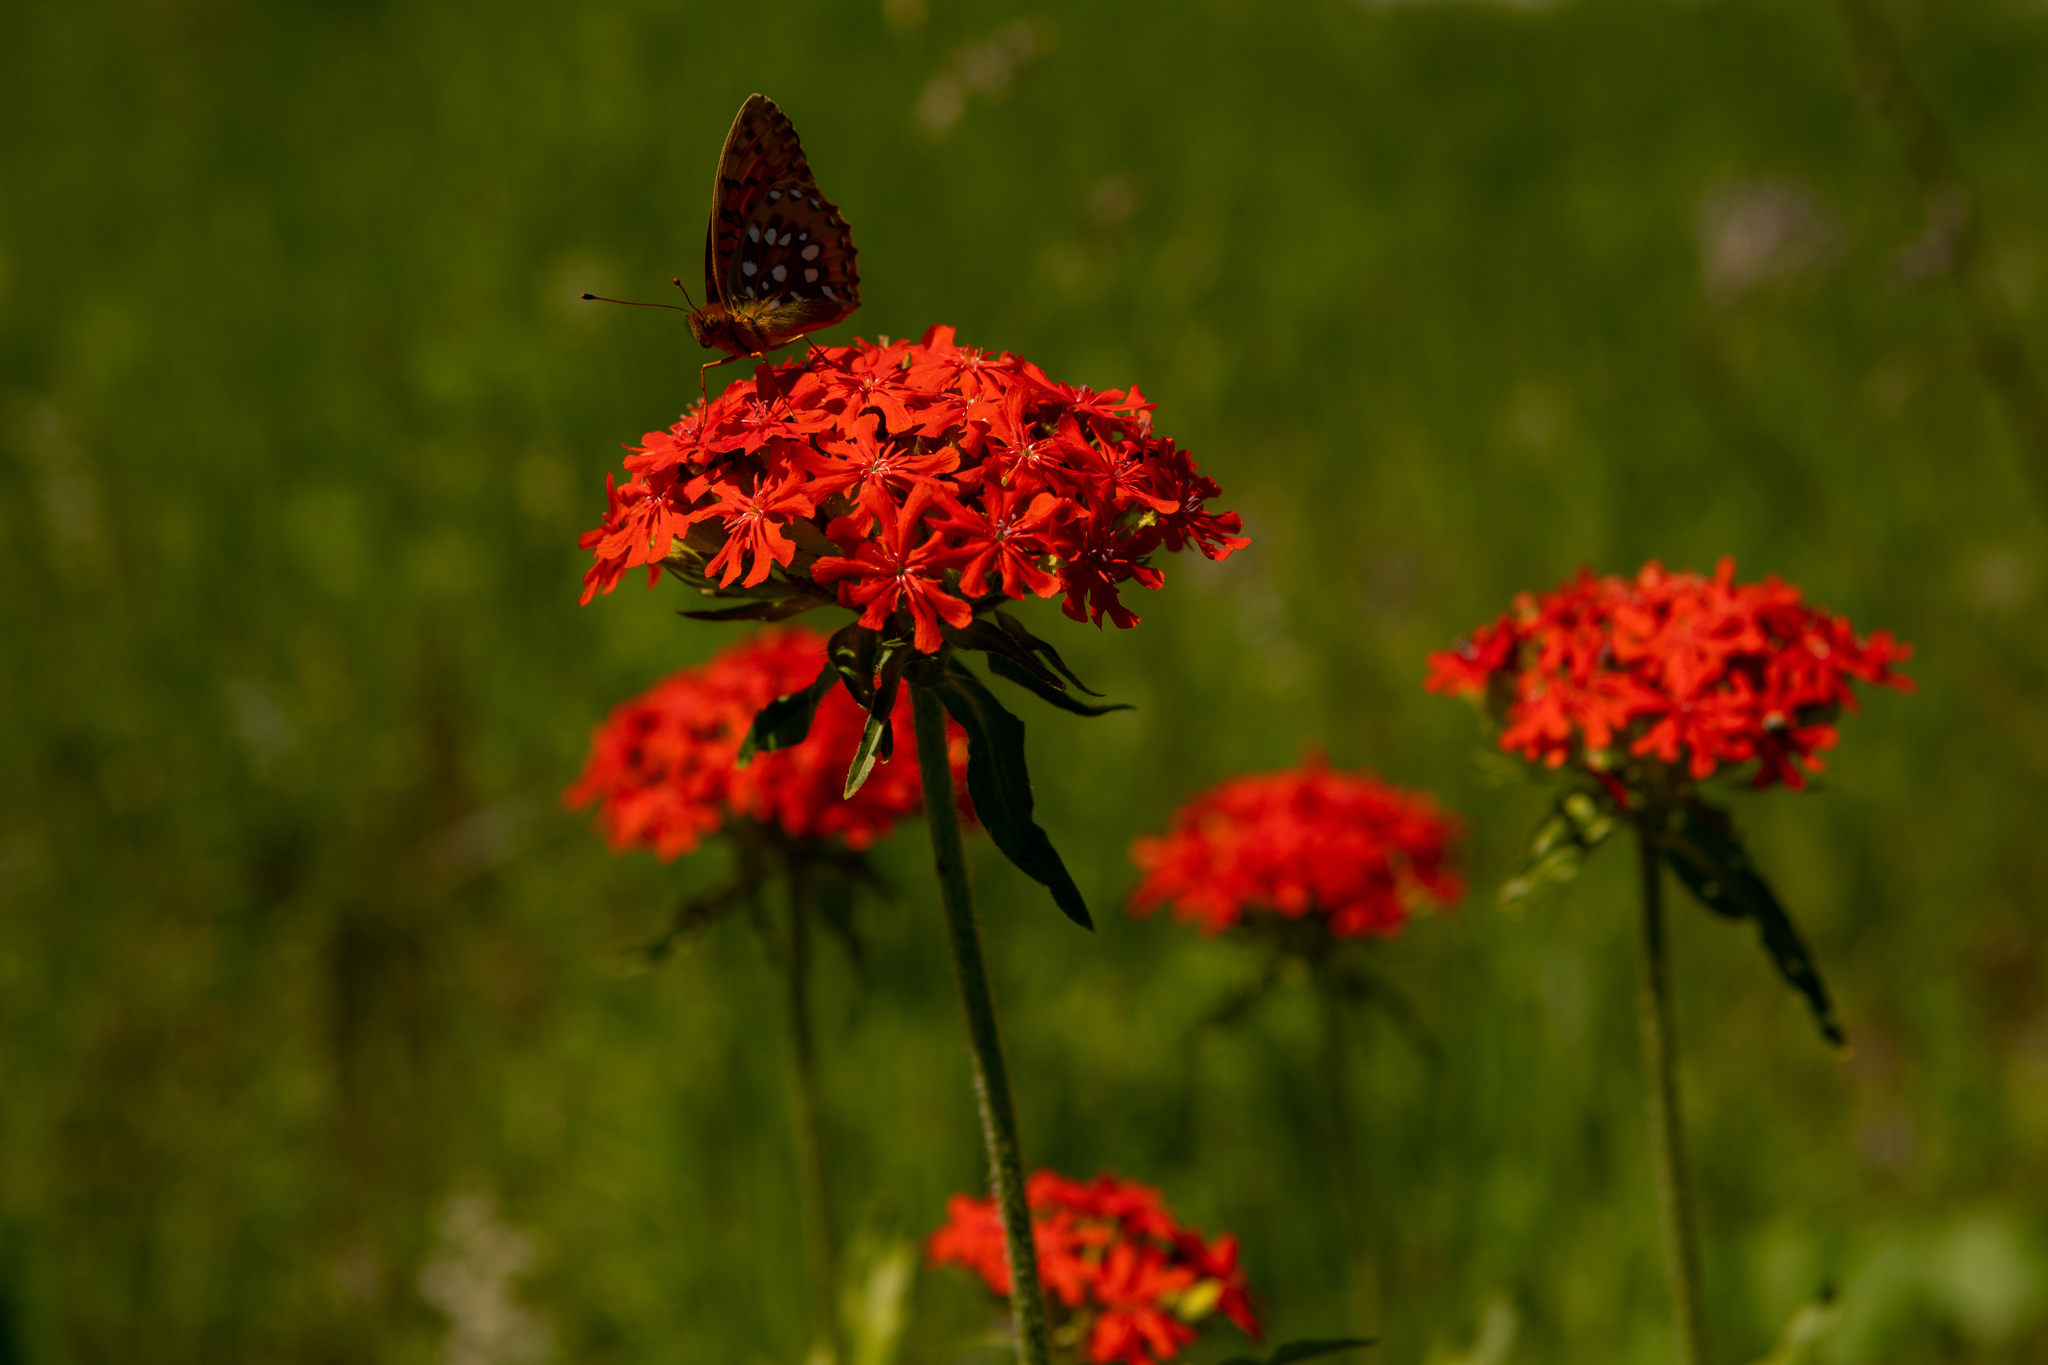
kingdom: Plantae
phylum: Tracheophyta
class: Magnoliopsida
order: Caryophyllales
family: Caryophyllaceae
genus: Silene
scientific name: Silene chalcedonica
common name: Maltese-cross
